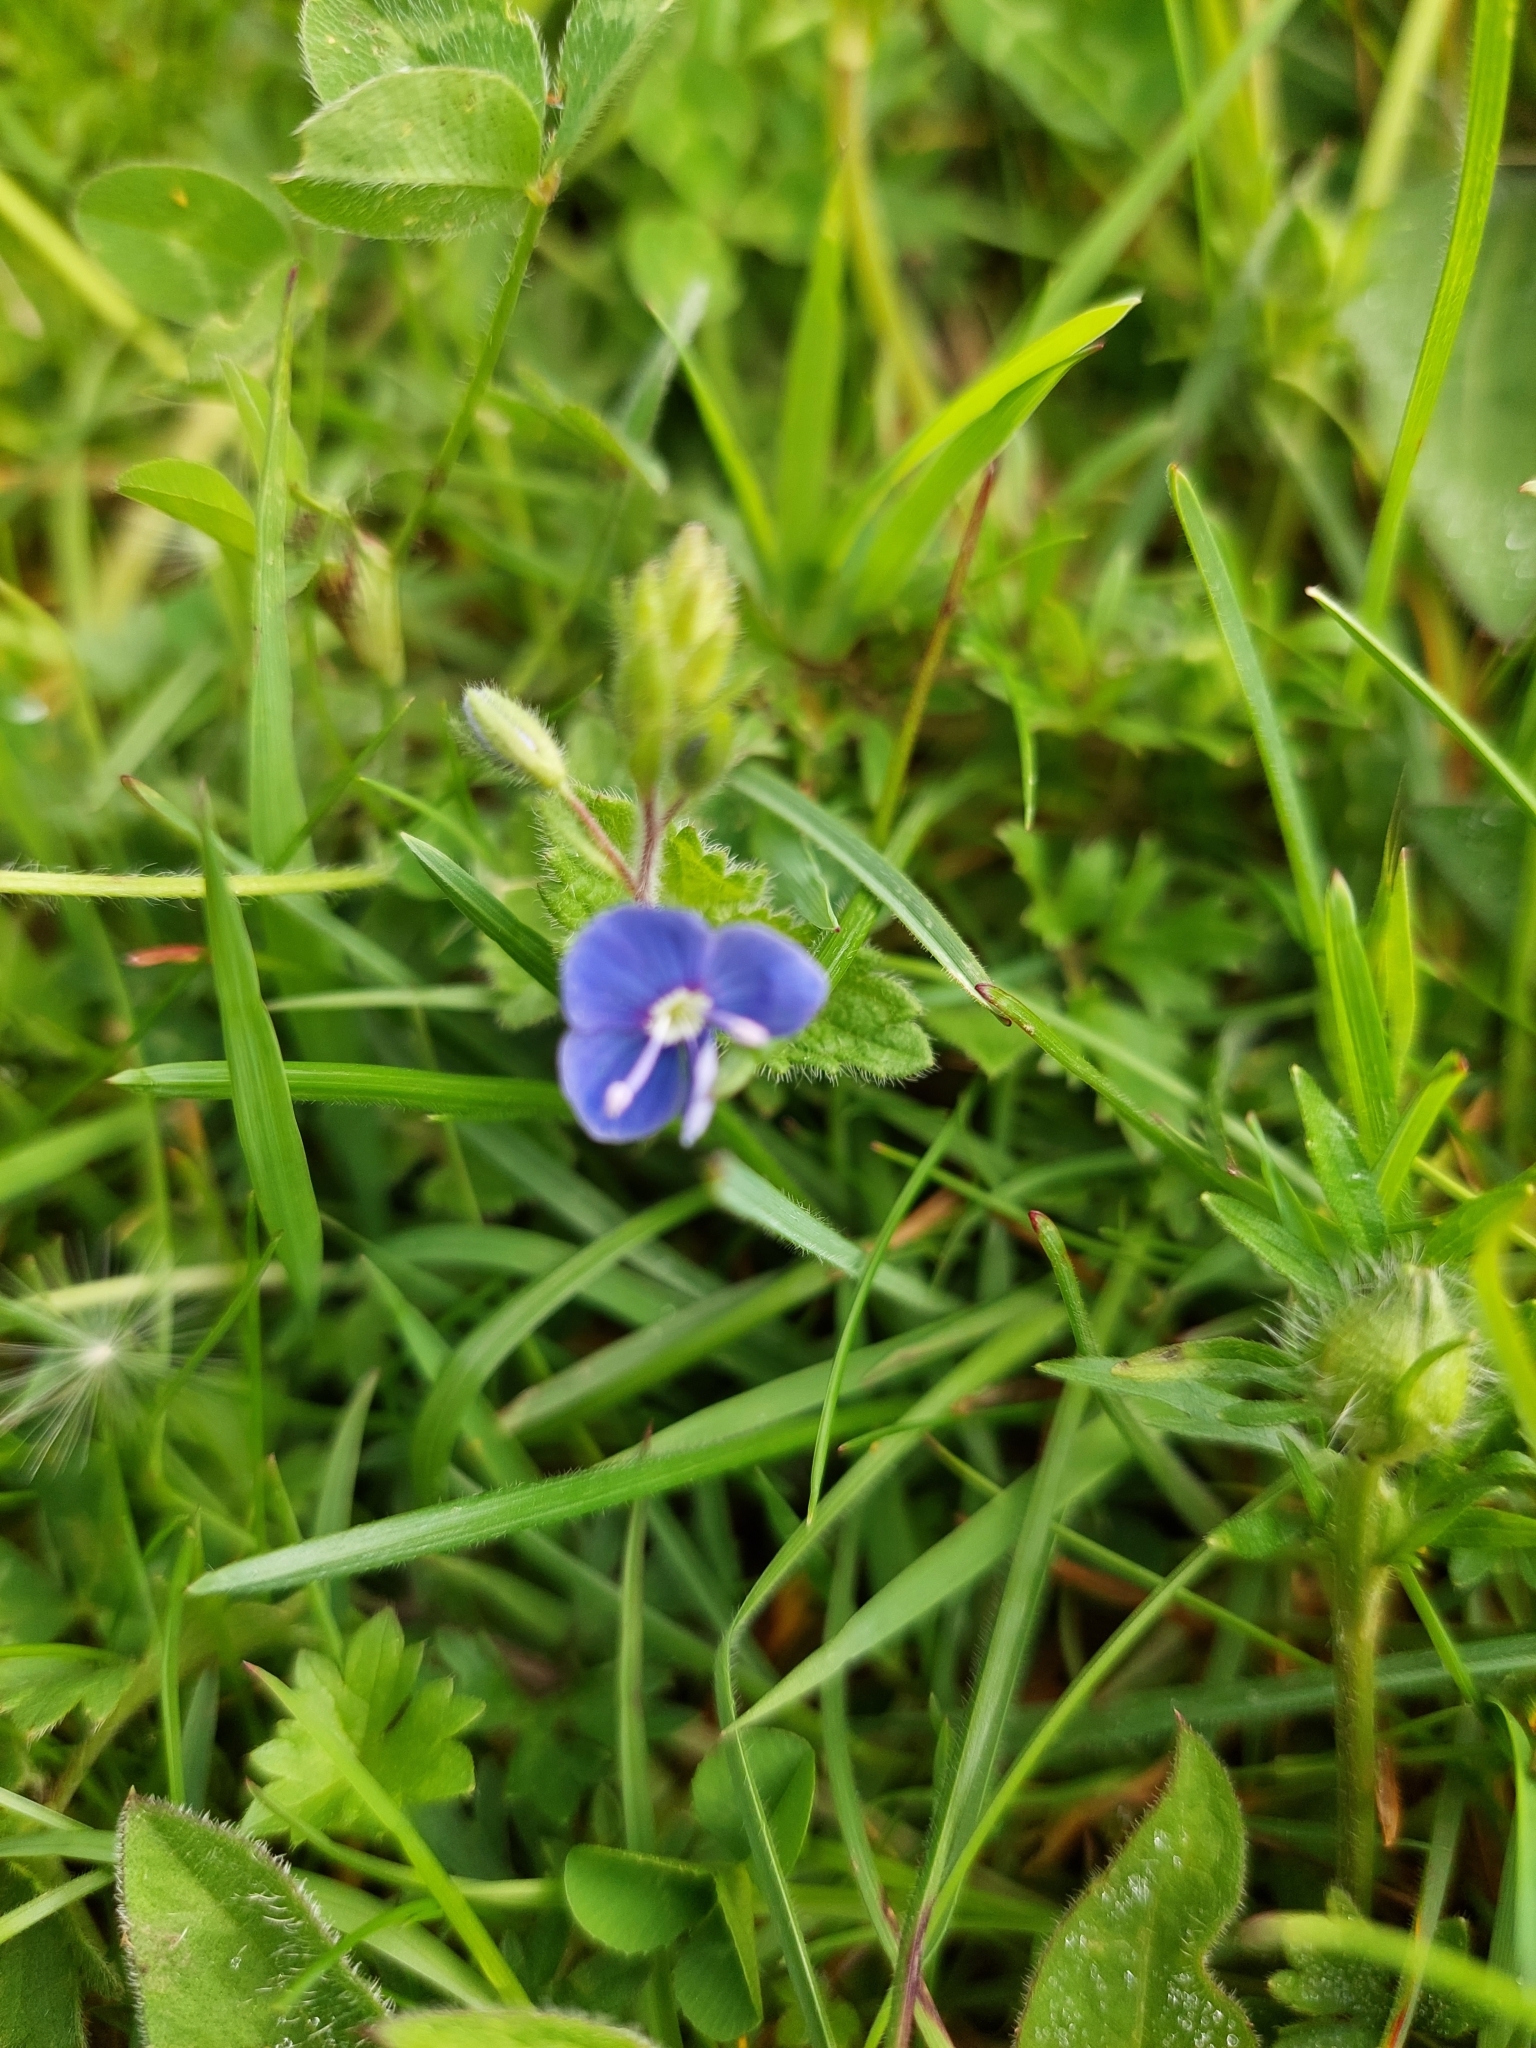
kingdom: Plantae
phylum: Tracheophyta
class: Magnoliopsida
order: Lamiales
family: Plantaginaceae
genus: Veronica
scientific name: Veronica chamaedrys
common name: Germander speedwell
